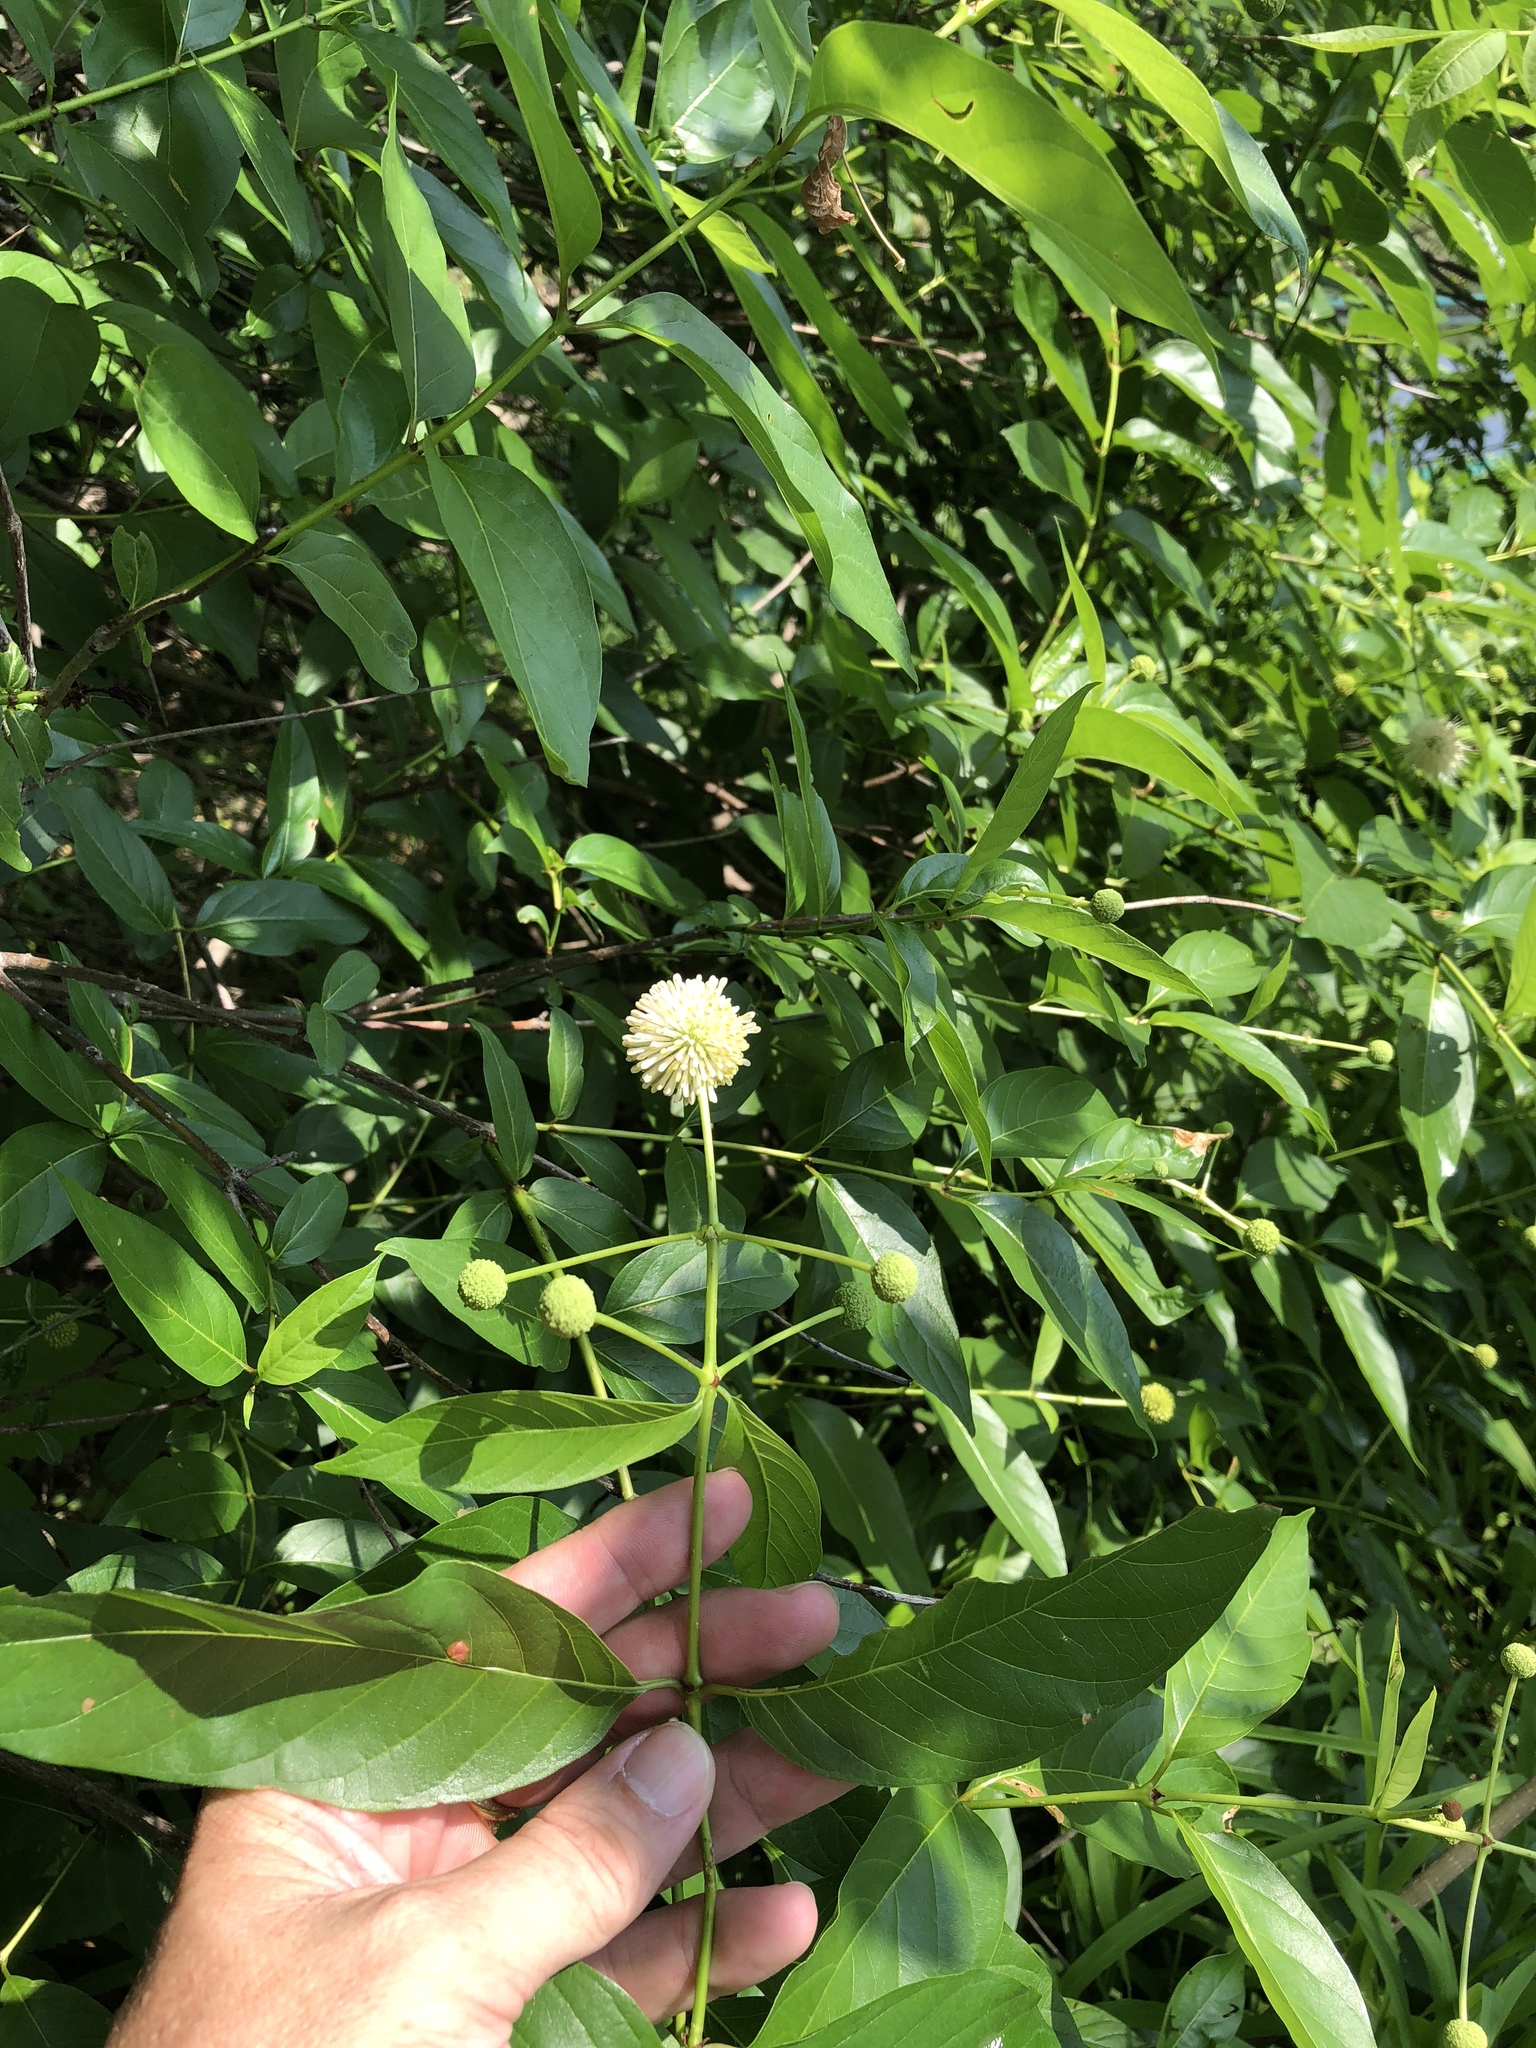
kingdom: Plantae
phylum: Tracheophyta
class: Magnoliopsida
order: Gentianales
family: Rubiaceae
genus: Cephalanthus
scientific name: Cephalanthus occidentalis
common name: Button-willow
